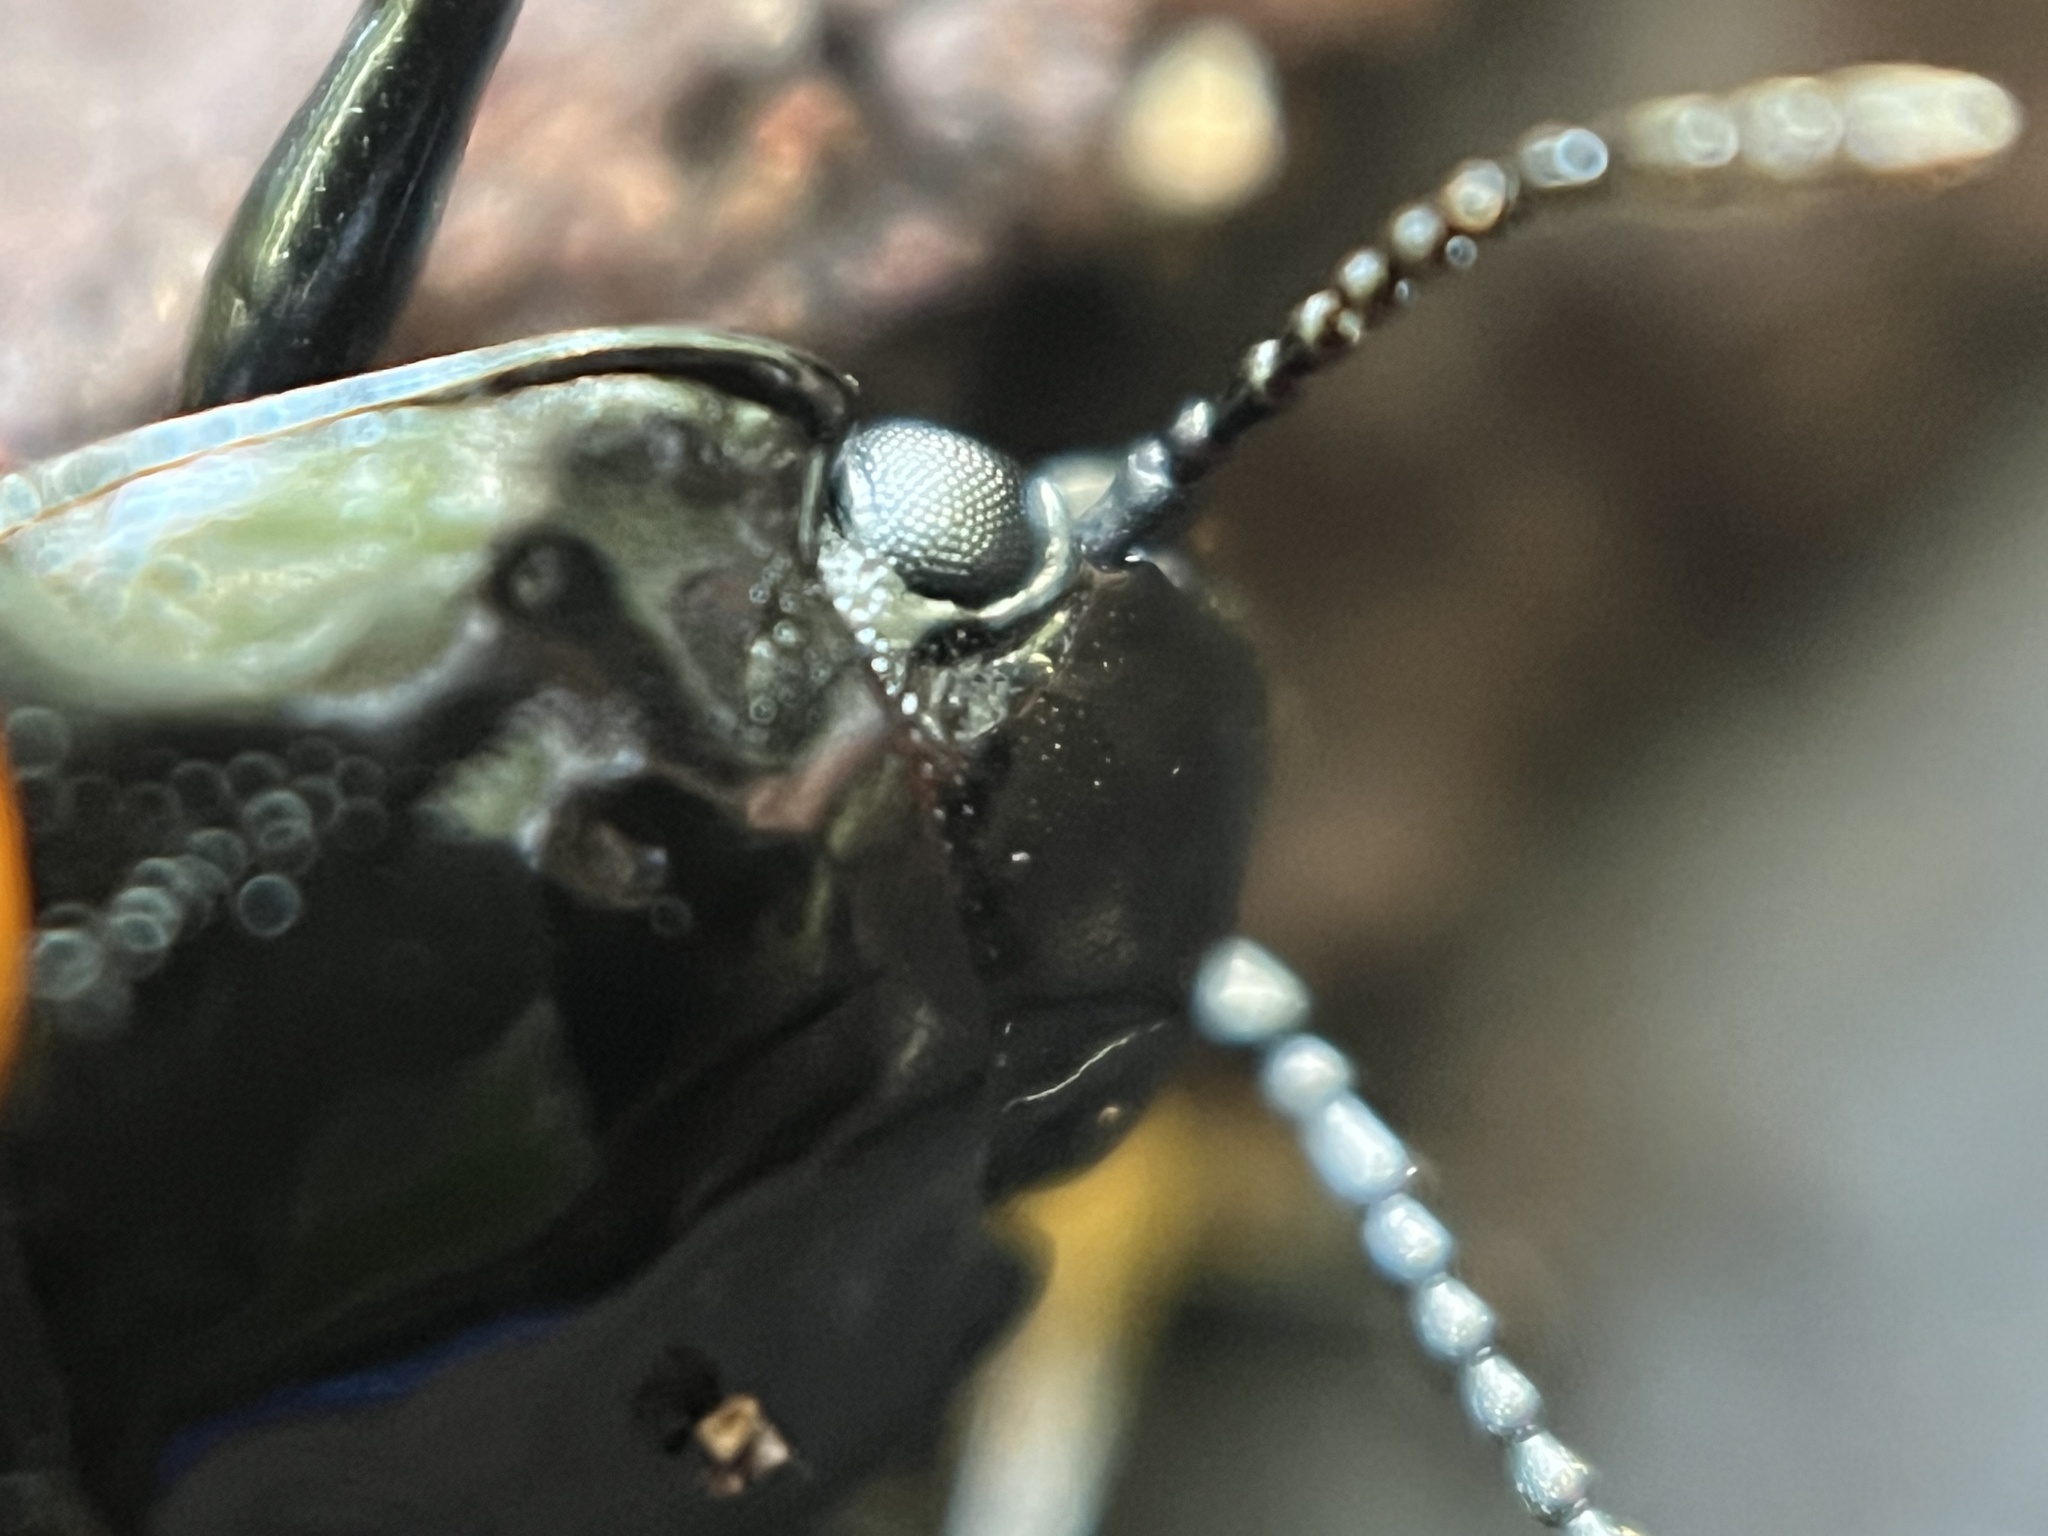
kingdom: Animalia
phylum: Arthropoda
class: Insecta
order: Coleoptera
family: Erotylidae
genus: Megalodacne
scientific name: Megalodacne heros
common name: Pleasing fungus beetle
